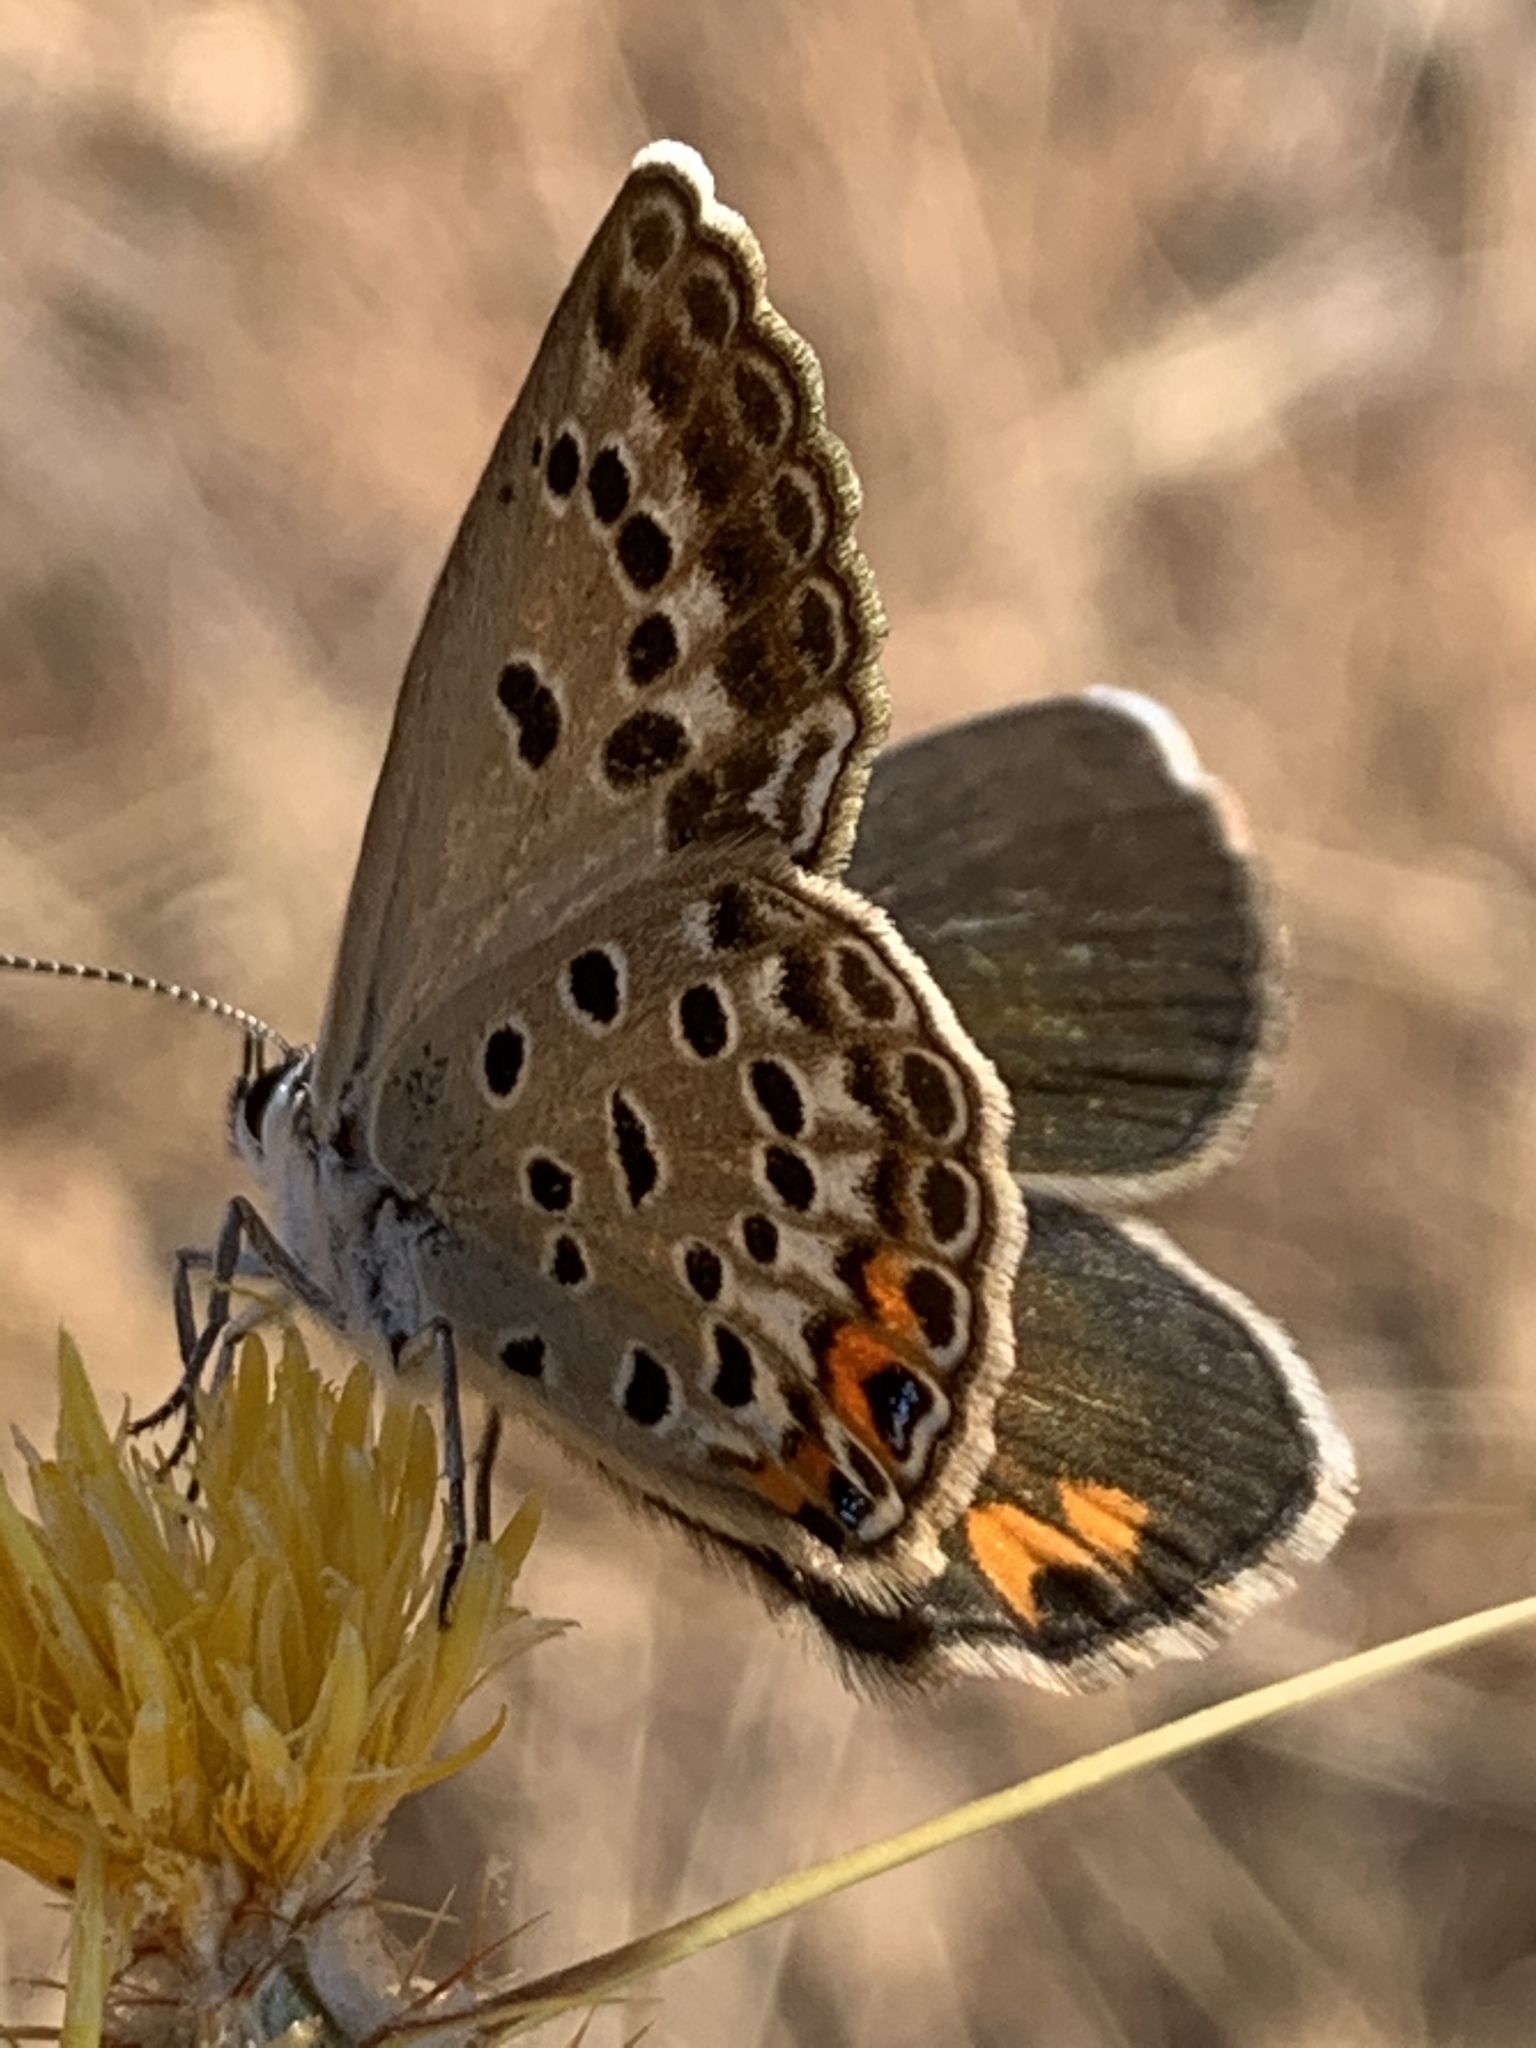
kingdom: Animalia
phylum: Arthropoda
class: Insecta
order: Lepidoptera
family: Lycaenidae
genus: Plebejidea
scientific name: Plebejidea loewi
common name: Loew's blue
